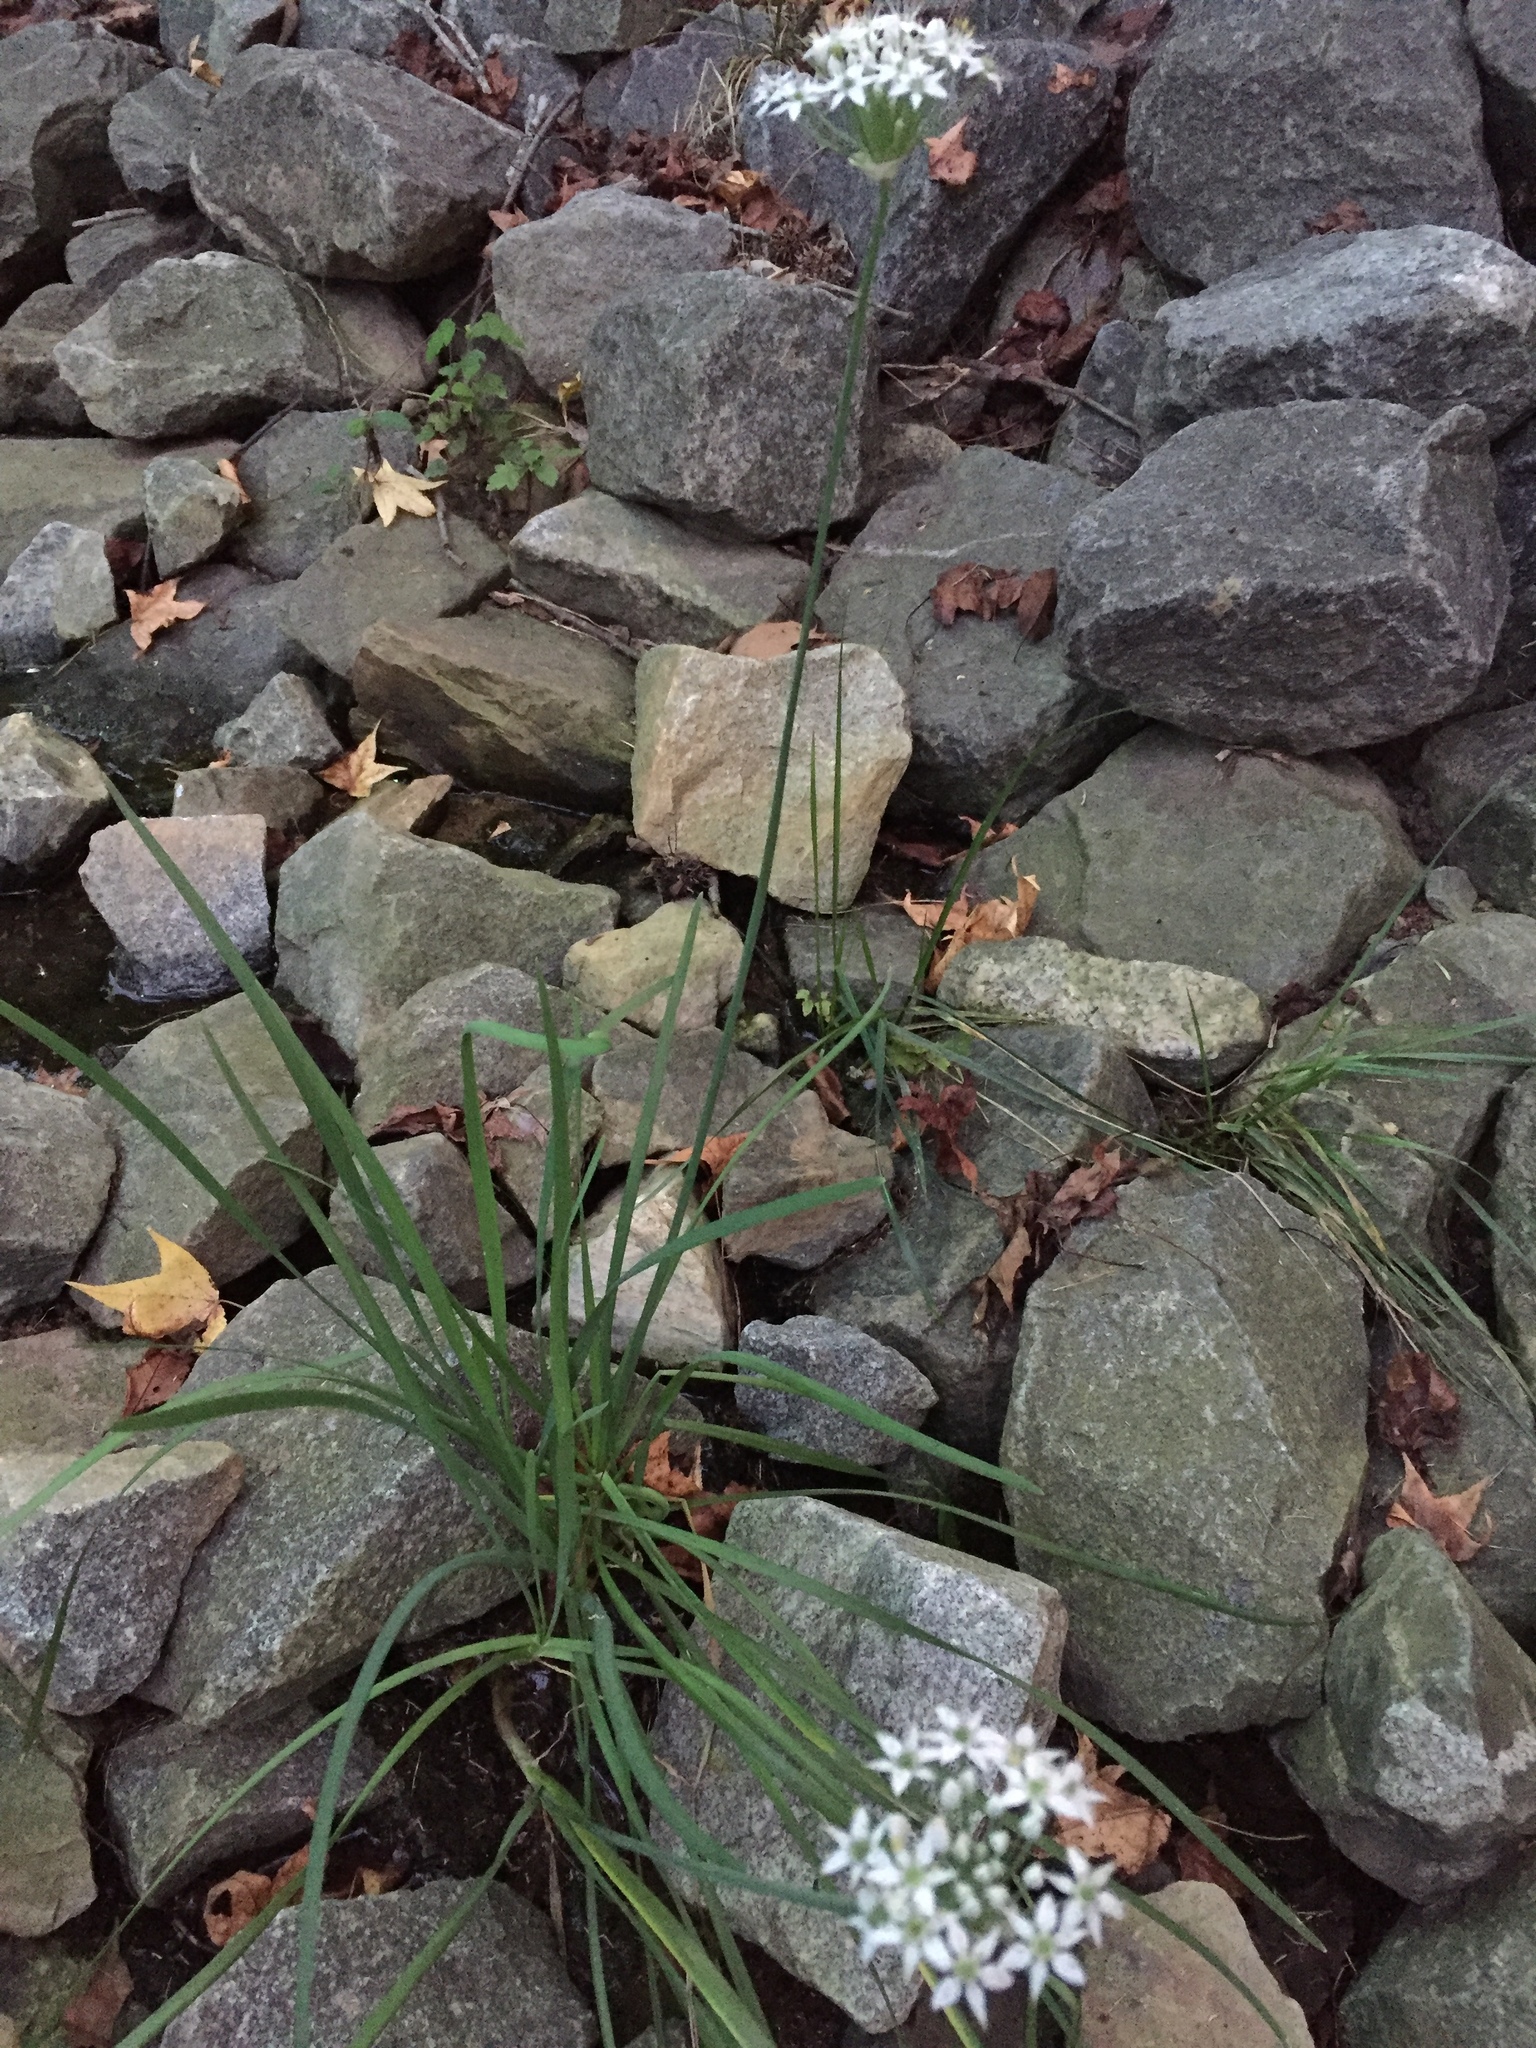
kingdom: Plantae
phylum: Tracheophyta
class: Liliopsida
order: Asparagales
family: Amaryllidaceae
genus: Allium
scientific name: Allium tuberosum
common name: Chinese chives
